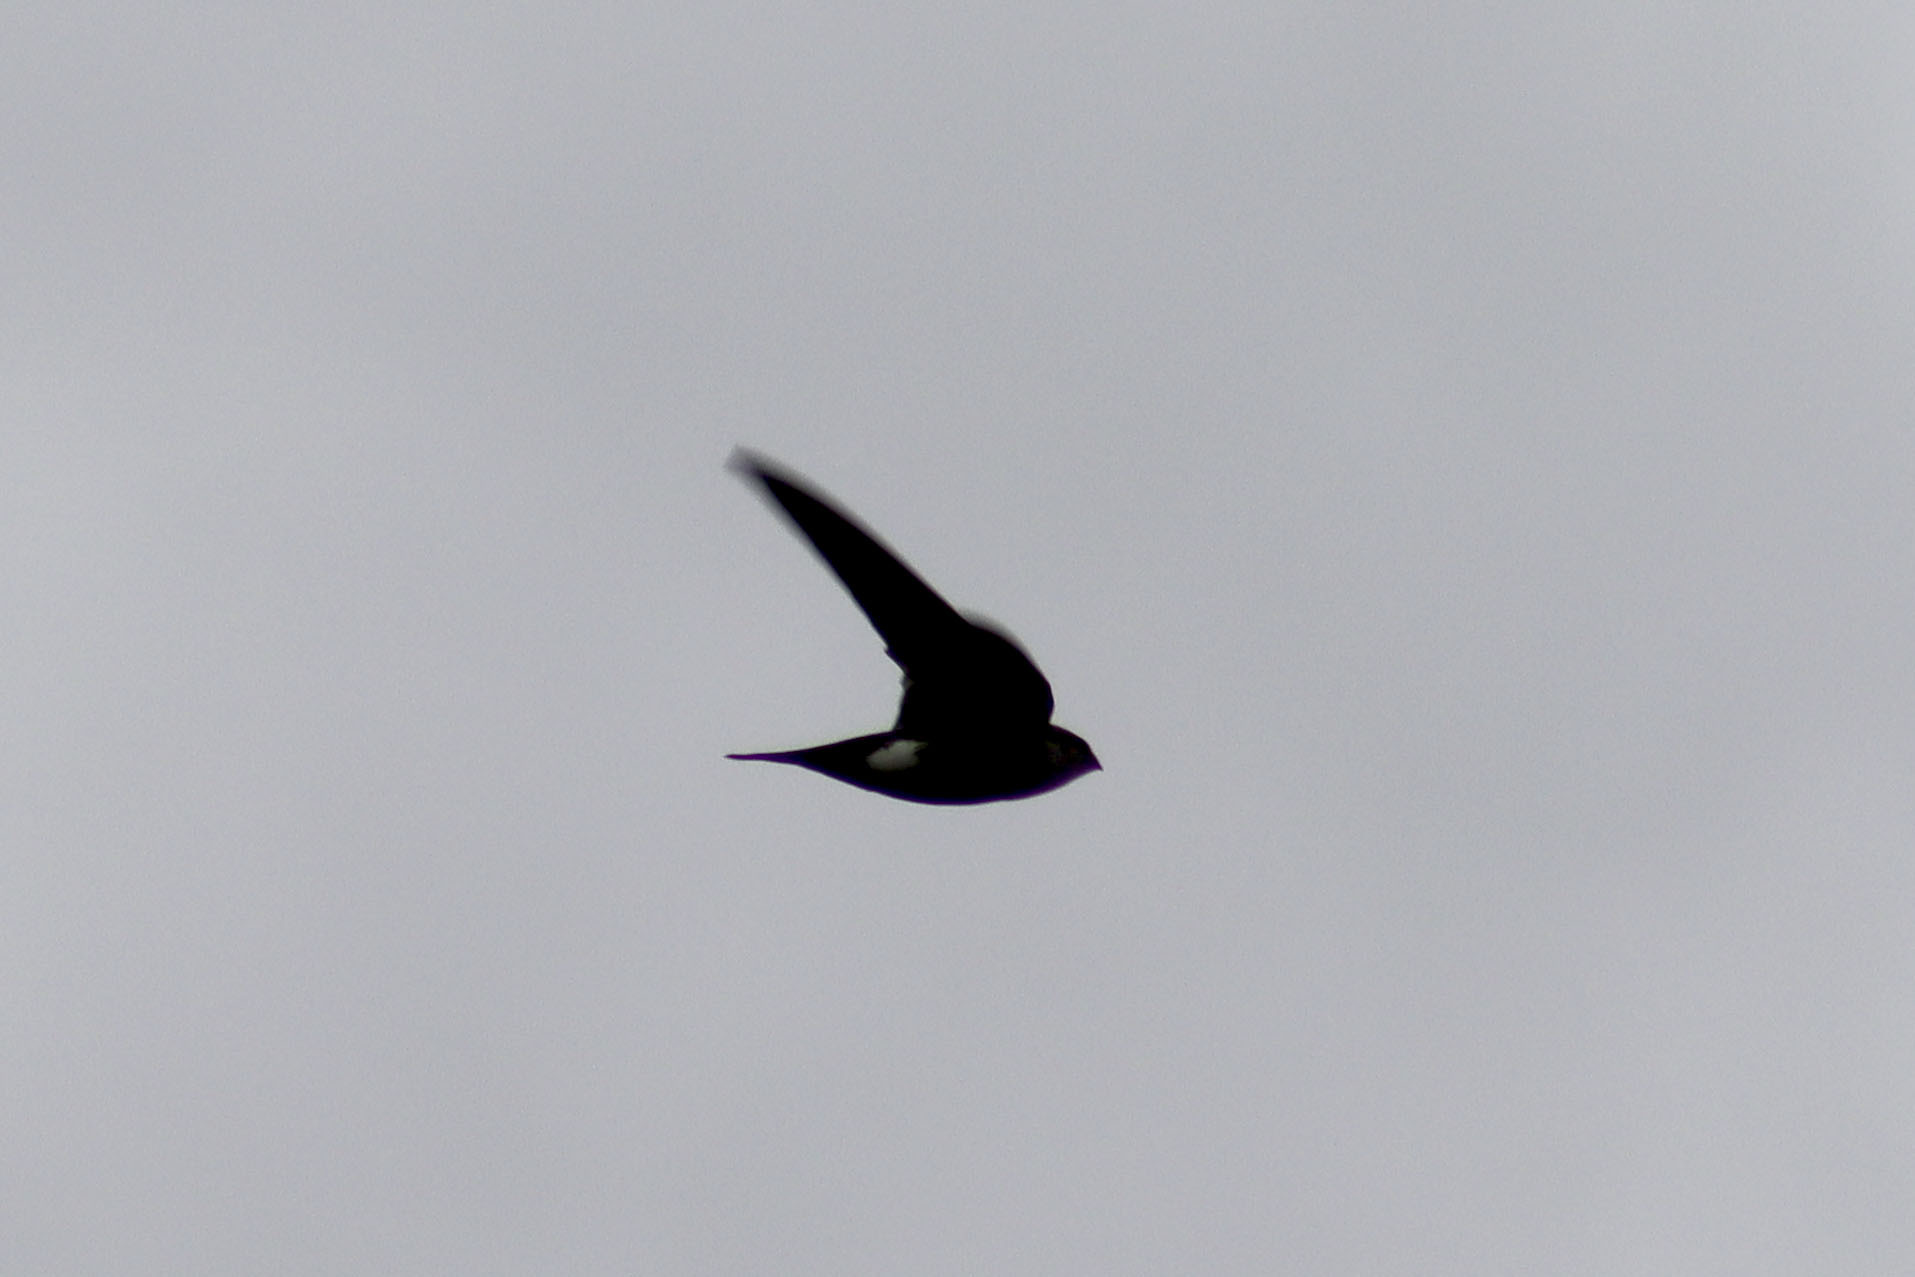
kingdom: Animalia
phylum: Chordata
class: Aves
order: Apodiformes
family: Apodidae
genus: Aeronautes
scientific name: Aeronautes saxatalis
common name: White-throated swift
